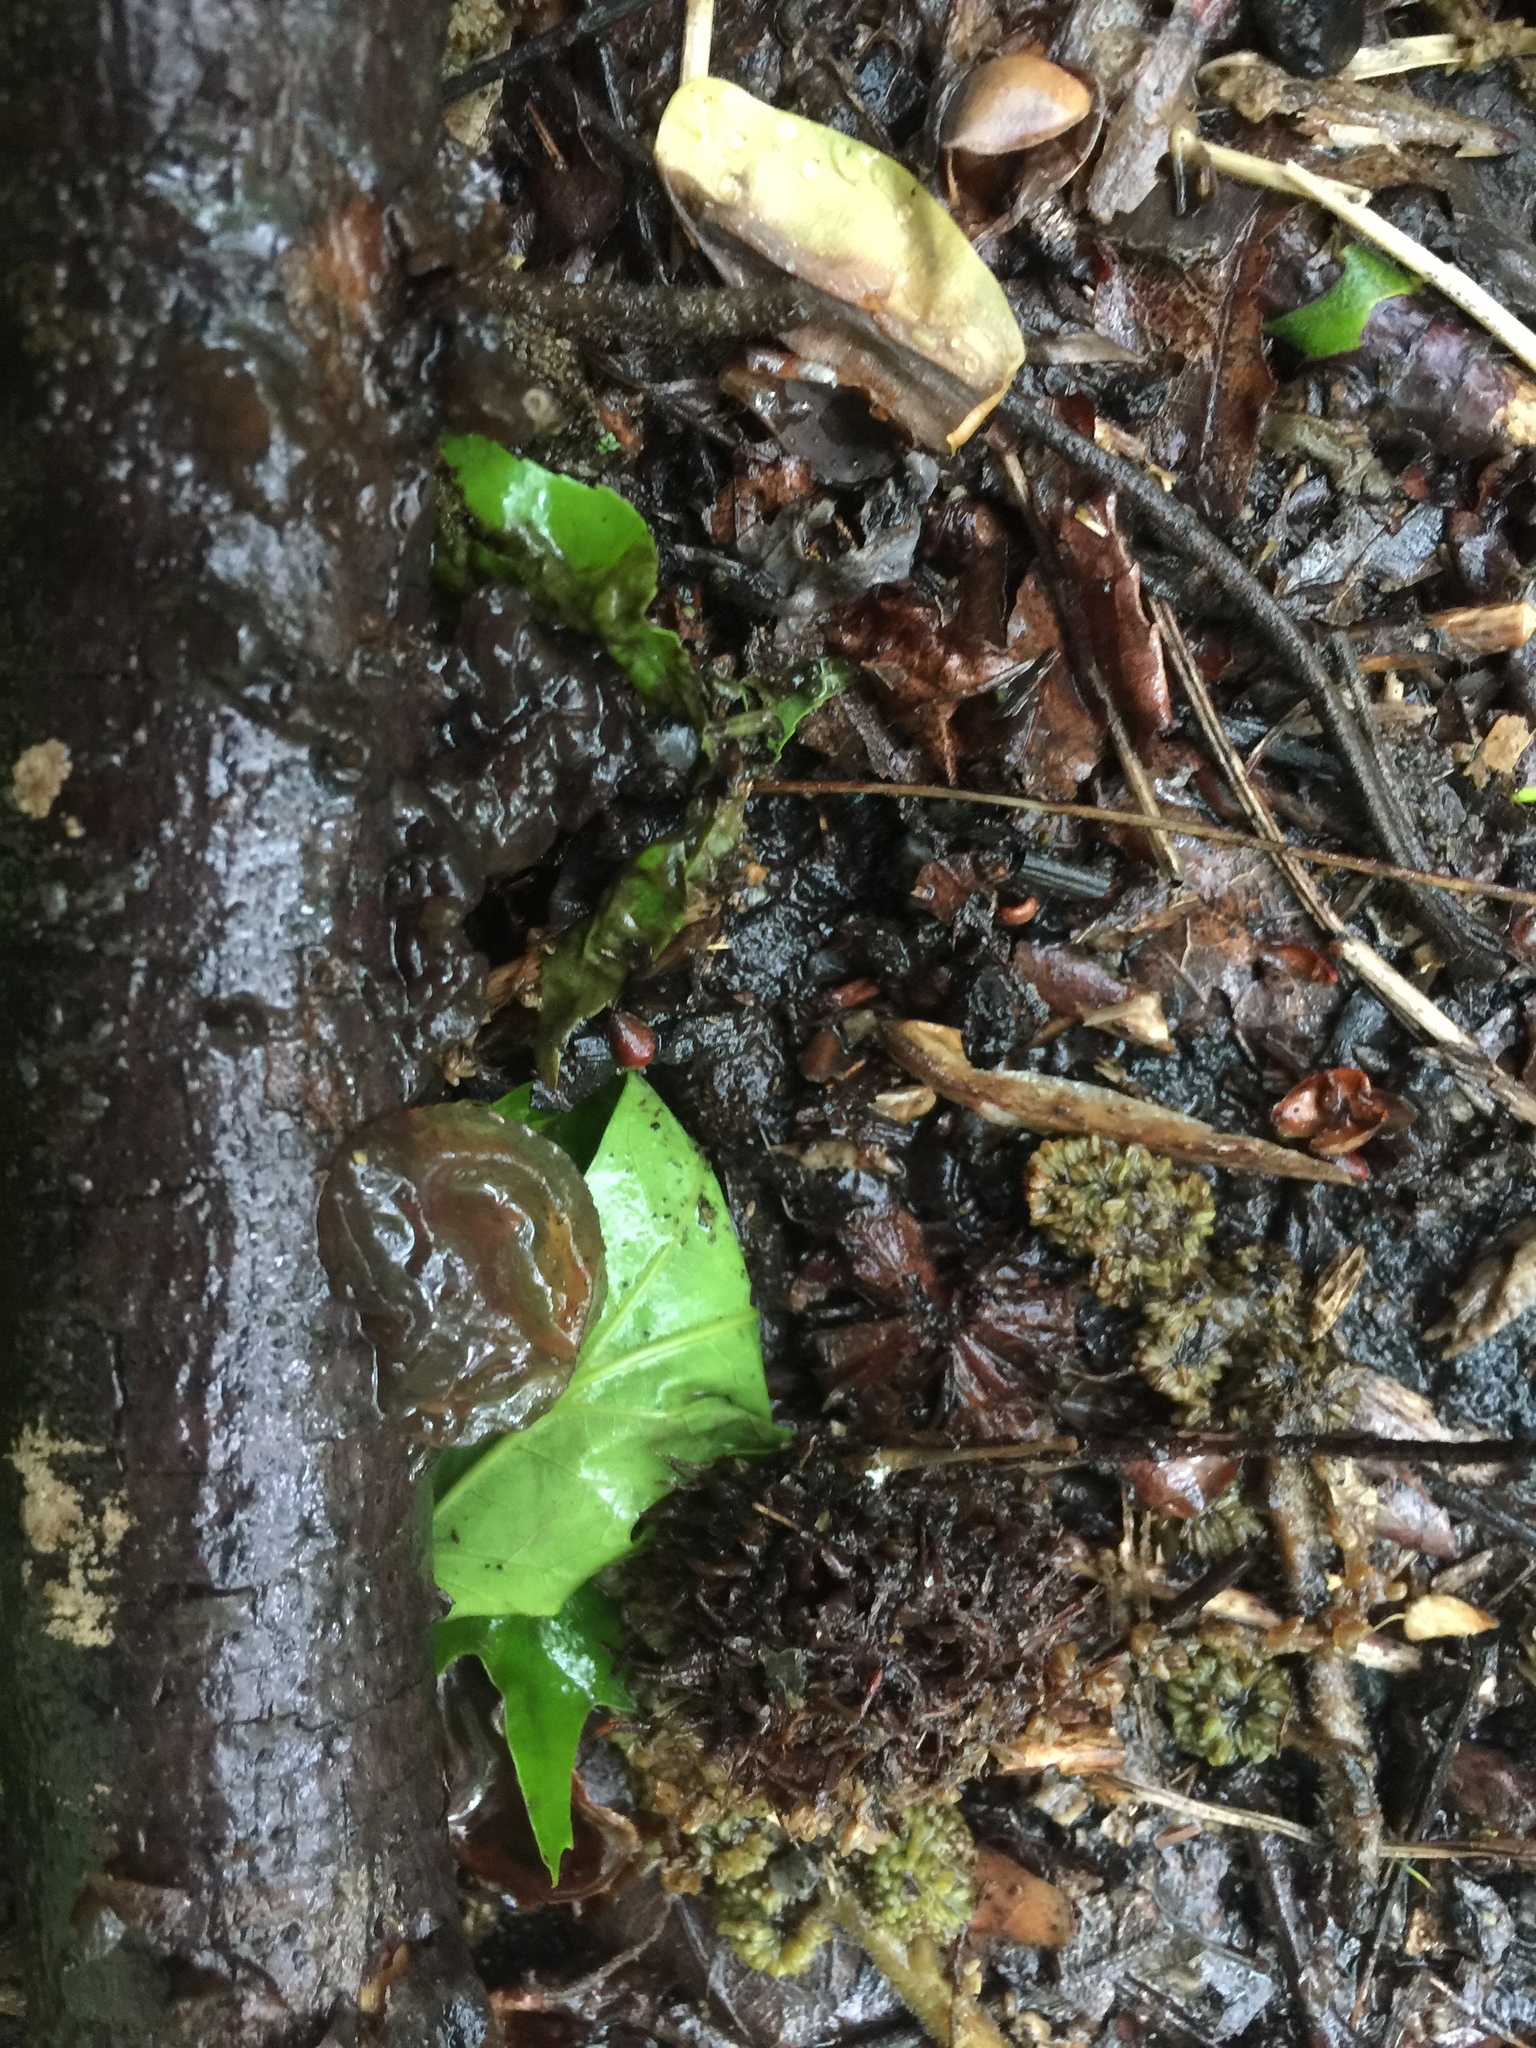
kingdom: Fungi
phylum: Basidiomycota
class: Agaricomycetes
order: Auriculariales
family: Auriculariaceae
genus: Exidia
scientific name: Exidia
